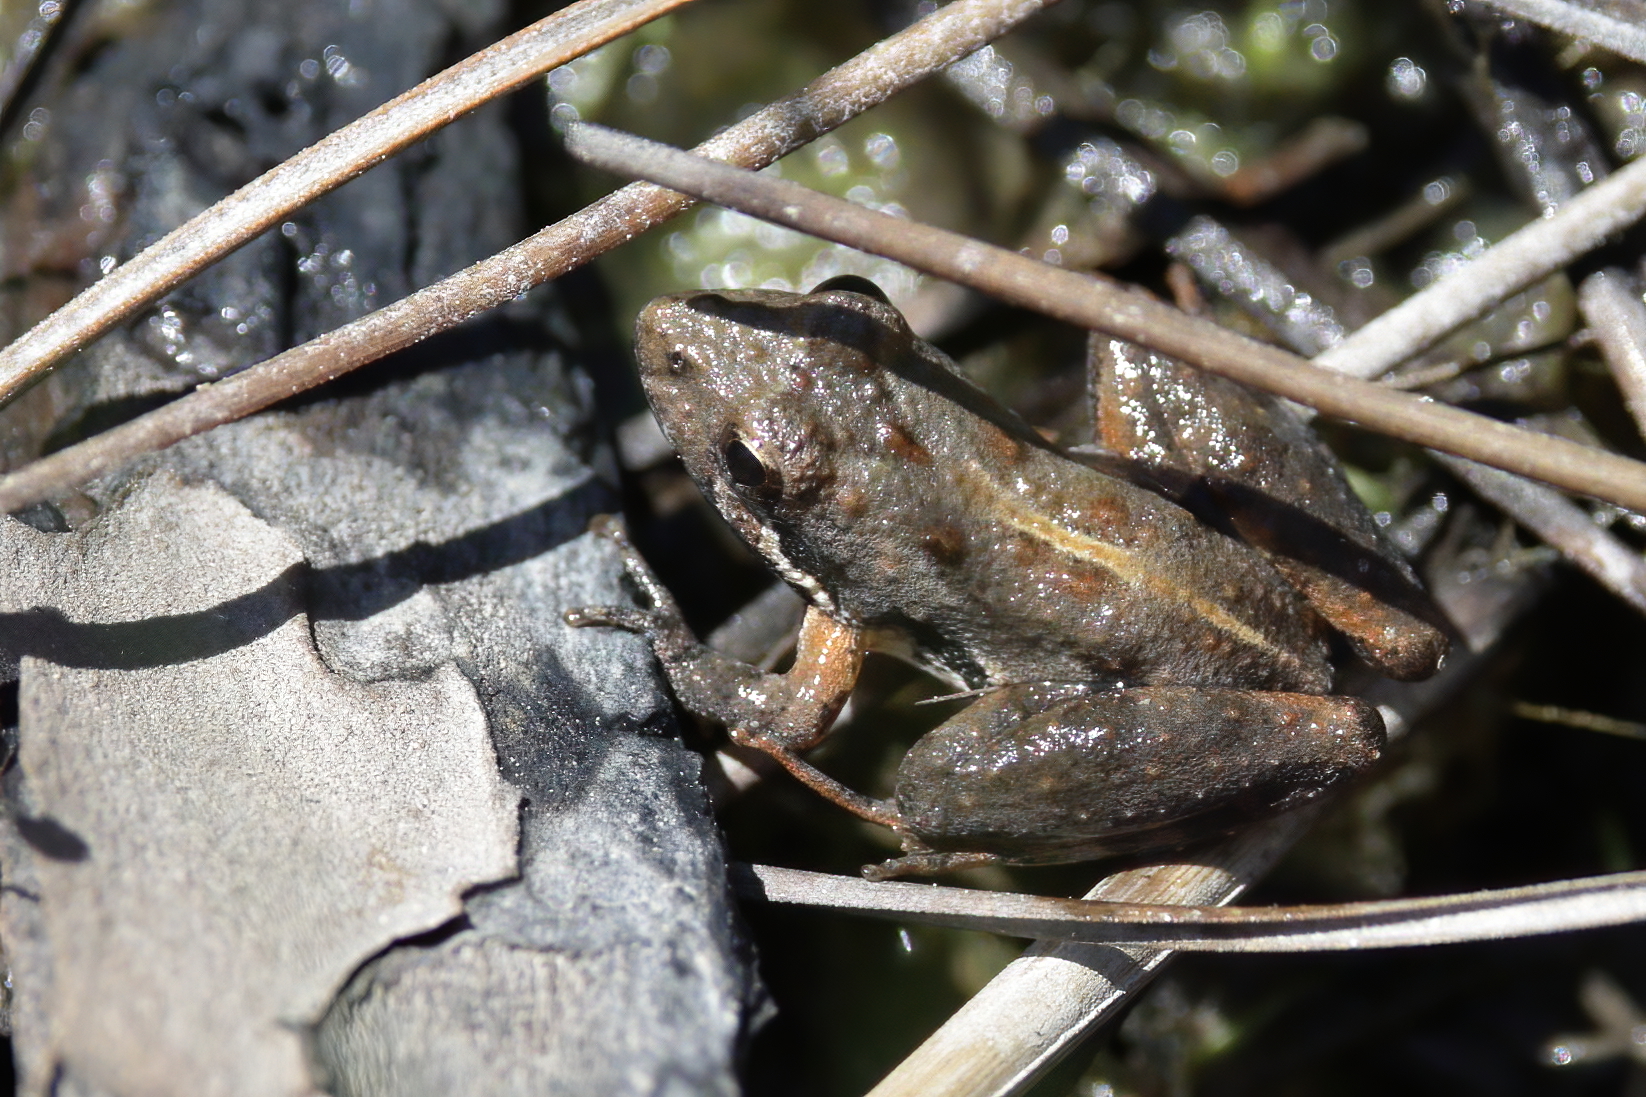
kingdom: Animalia
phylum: Chordata
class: Amphibia
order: Anura
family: Hylidae
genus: Acris
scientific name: Acris gryllus
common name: Southern cricket frog
